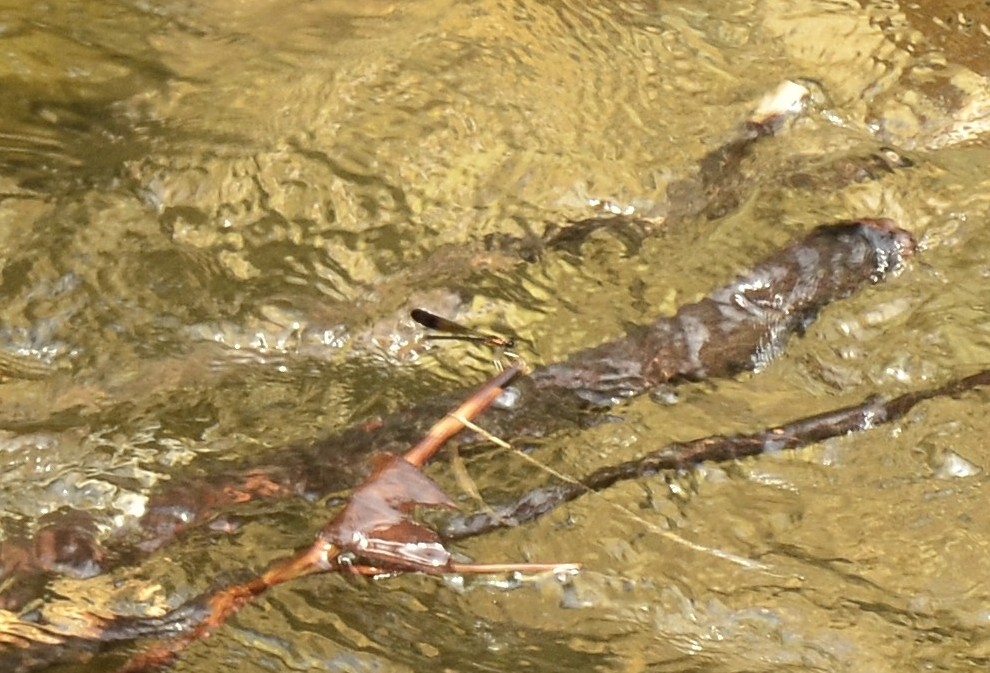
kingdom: Animalia
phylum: Arthropoda
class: Insecta
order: Odonata
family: Chlorocyphidae
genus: Heliocypha
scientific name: Heliocypha bisignata
